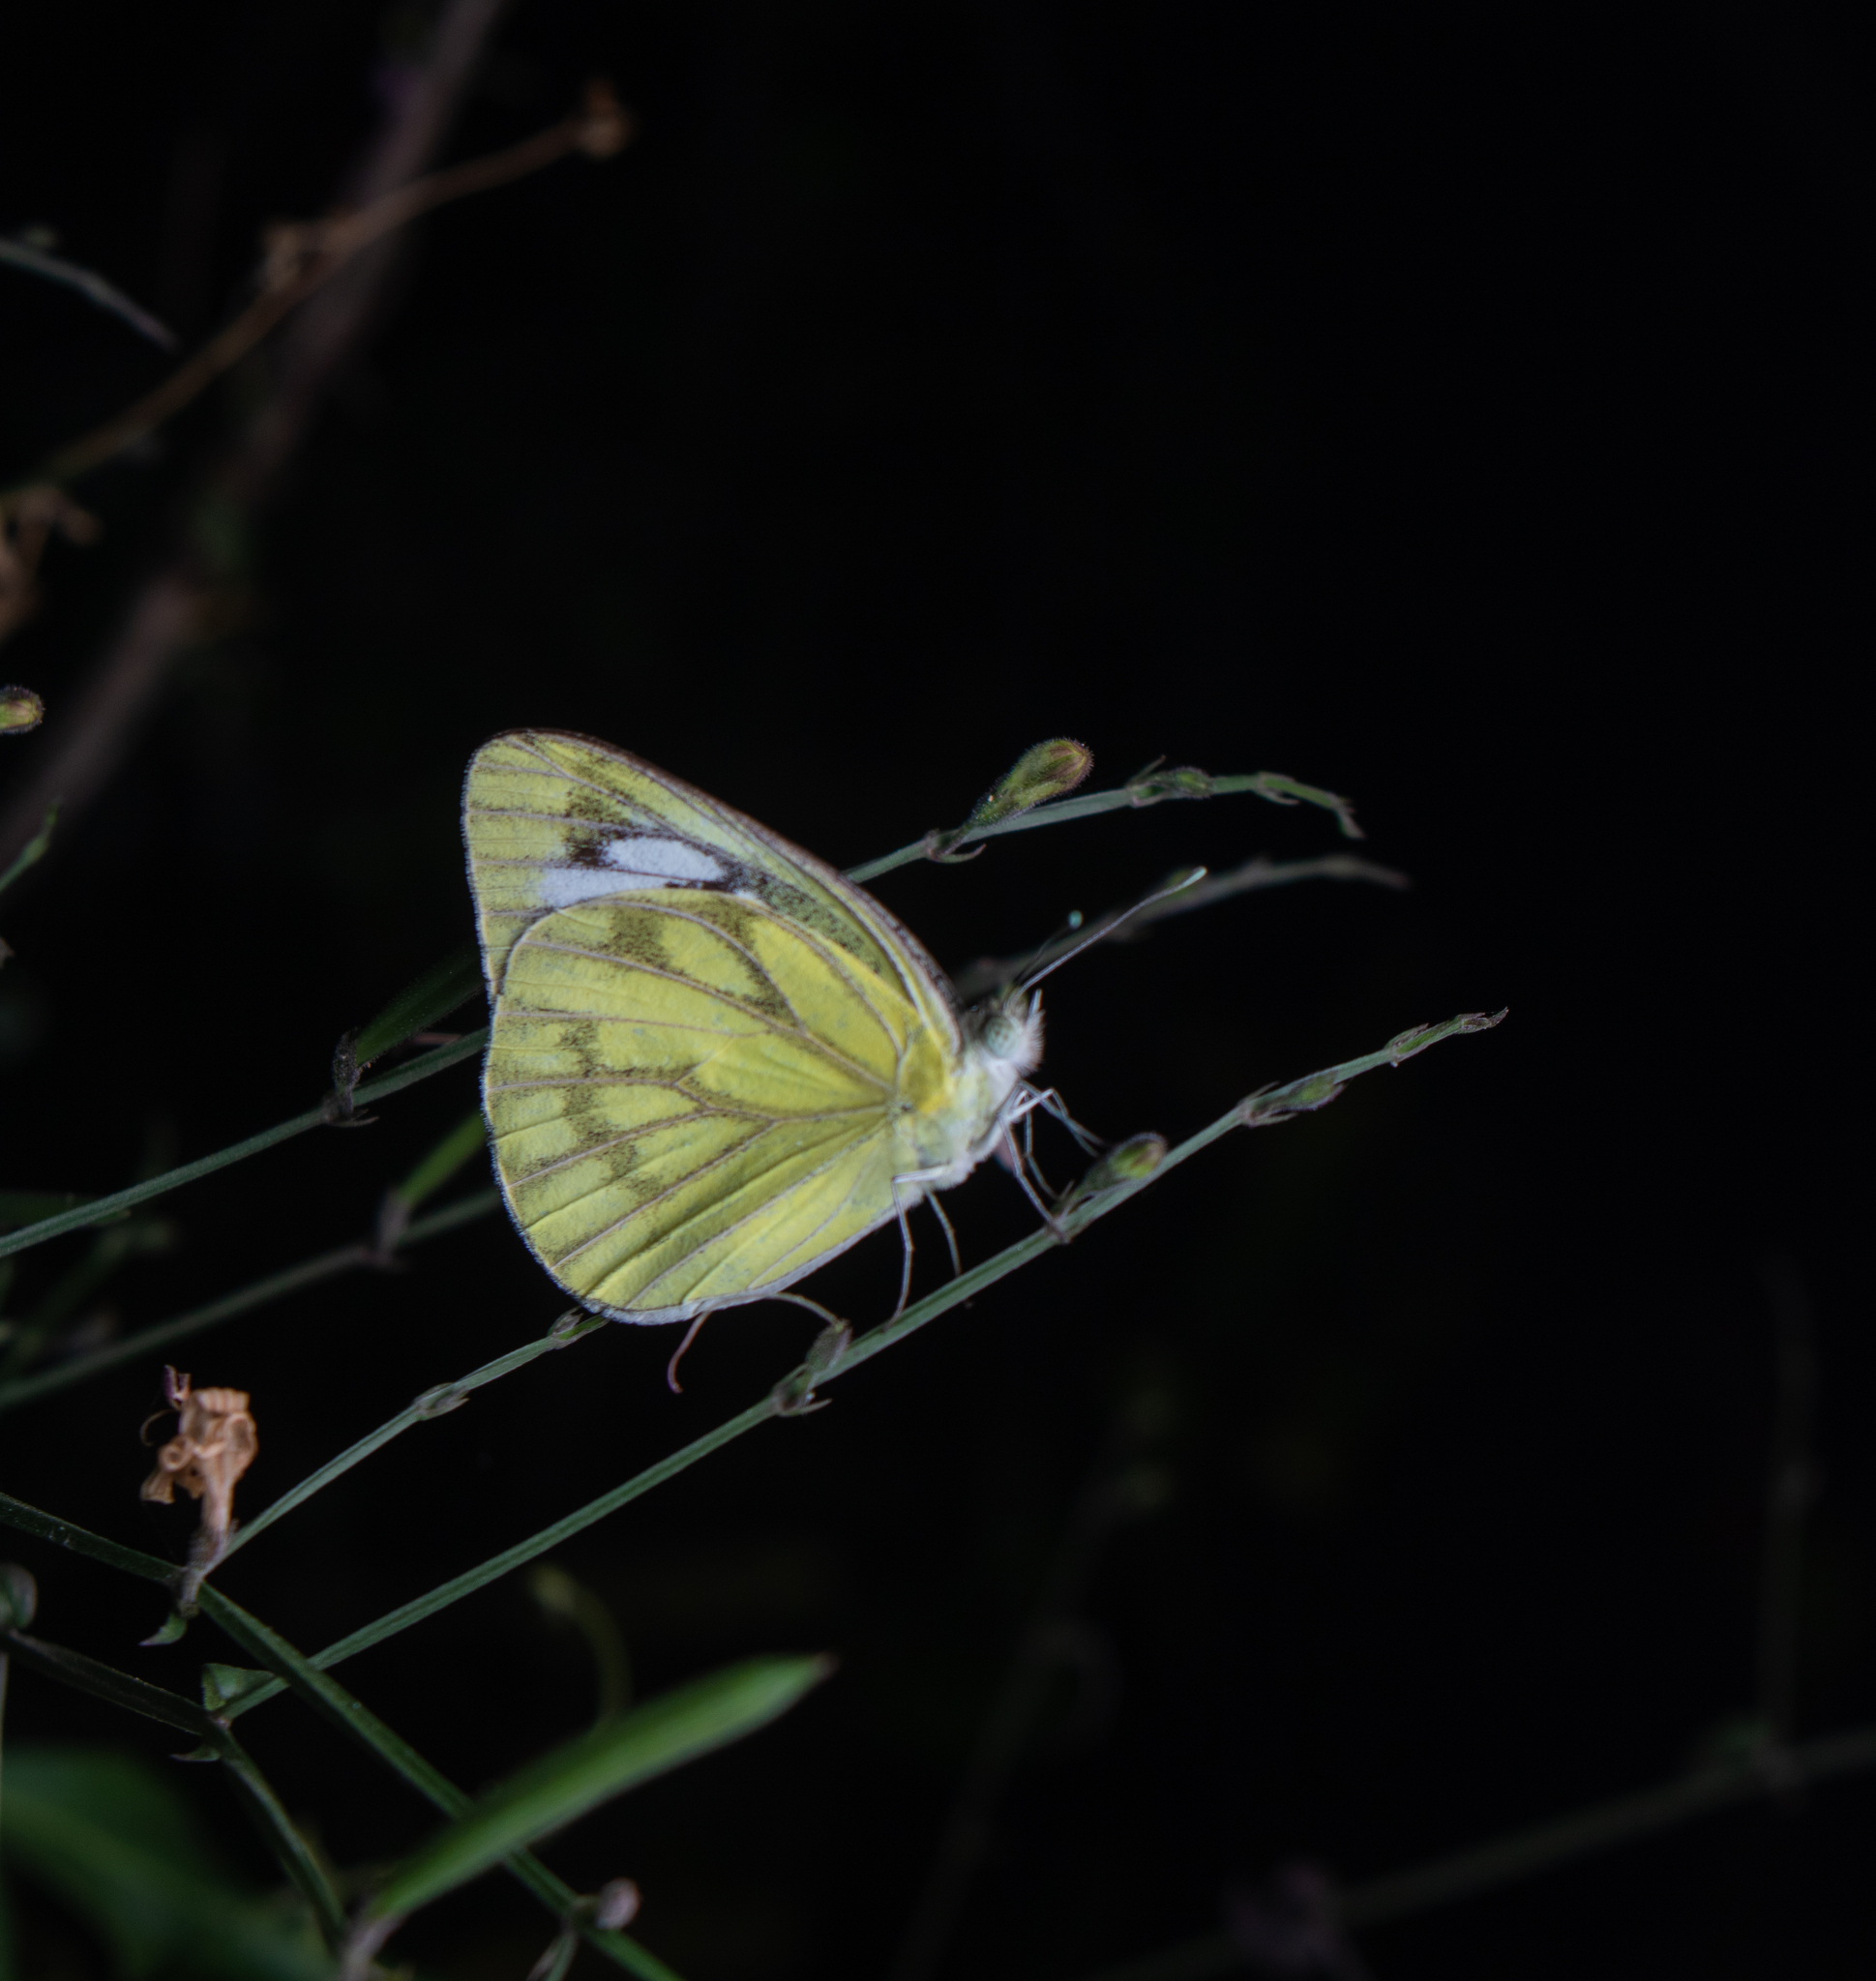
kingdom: Animalia
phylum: Arthropoda
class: Insecta
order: Lepidoptera
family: Pieridae
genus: Cepora
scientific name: Cepora nerissa
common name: Common gull
